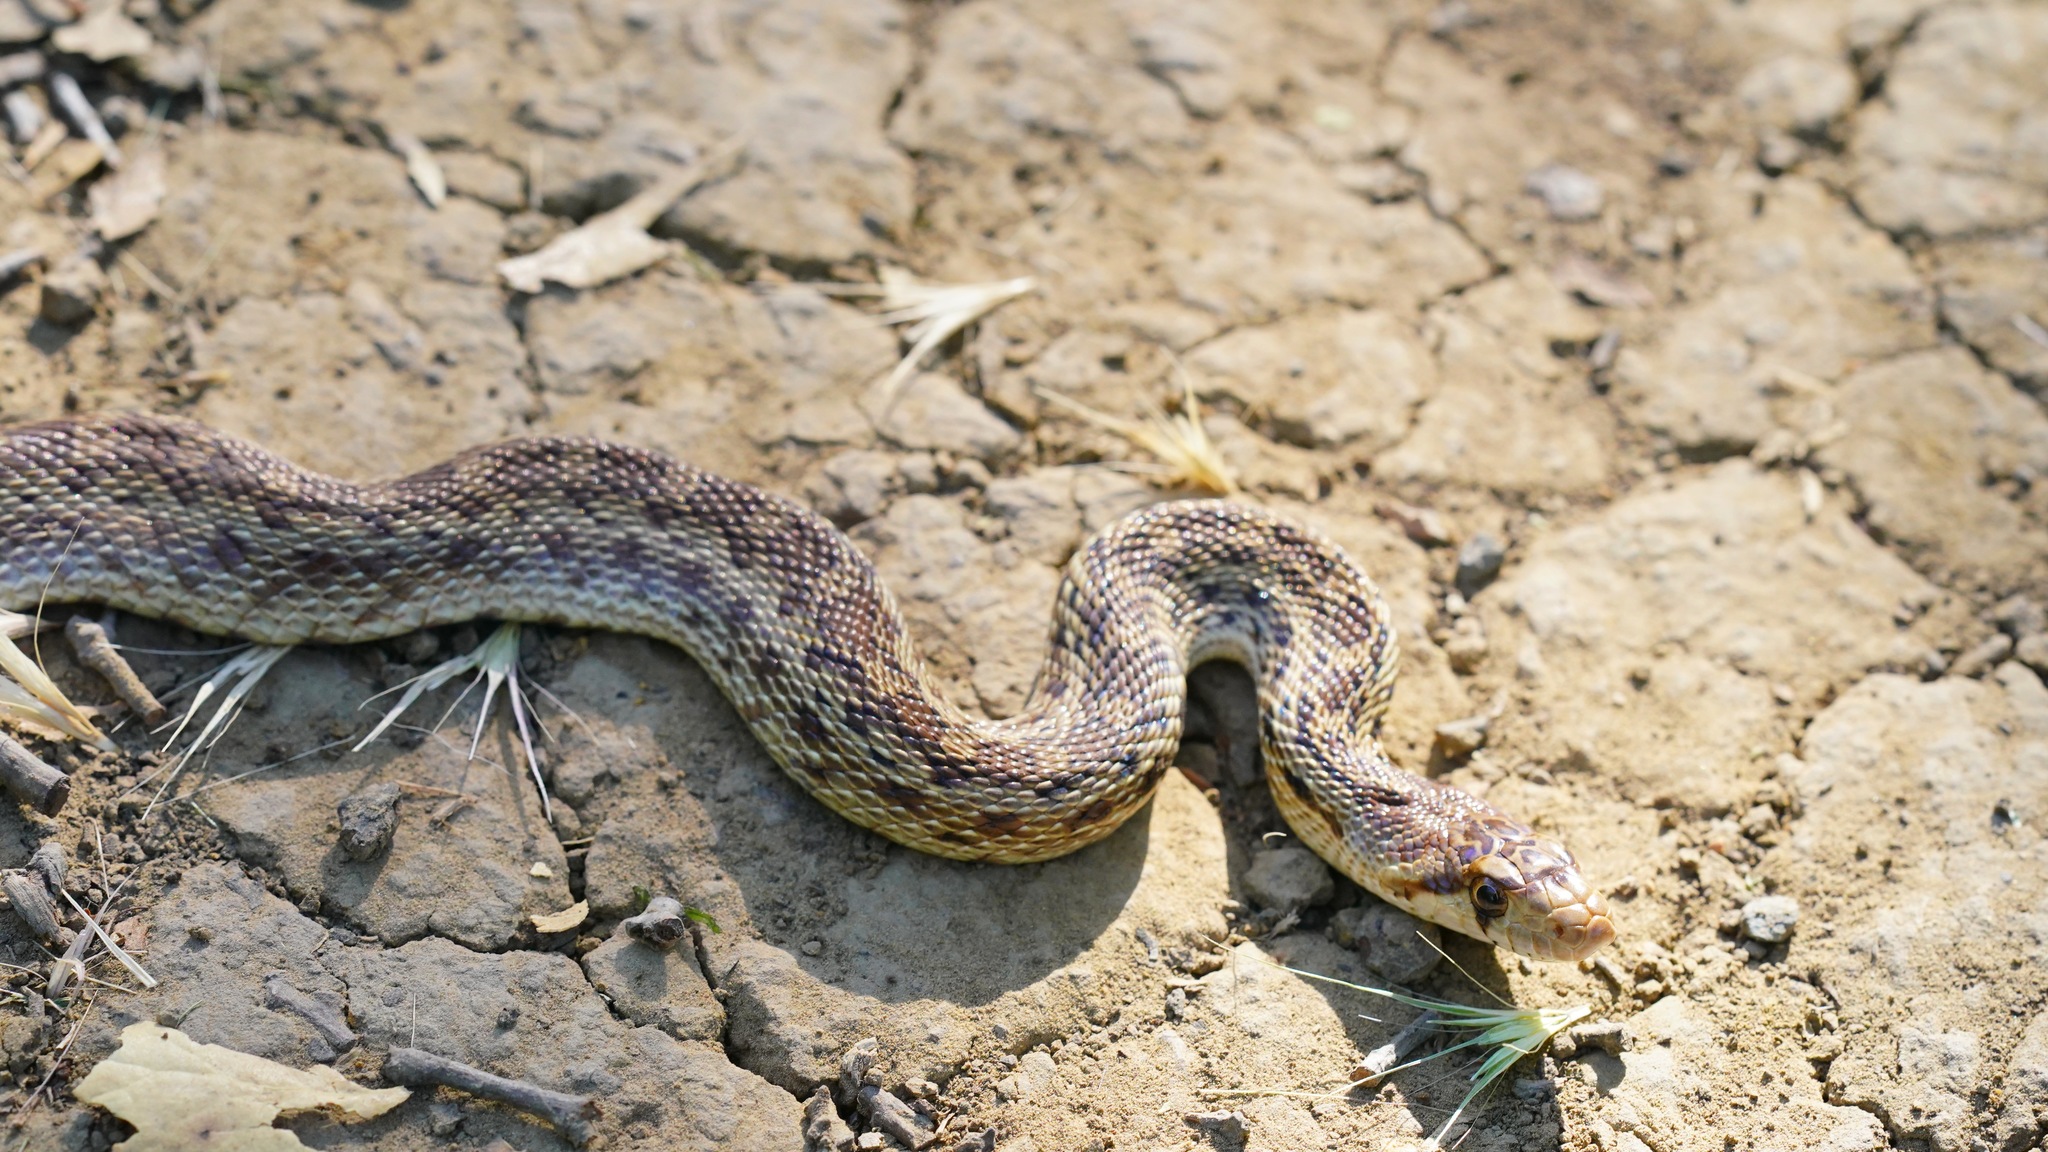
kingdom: Animalia
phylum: Chordata
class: Squamata
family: Colubridae
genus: Pituophis
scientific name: Pituophis catenifer
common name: Gopher snake
